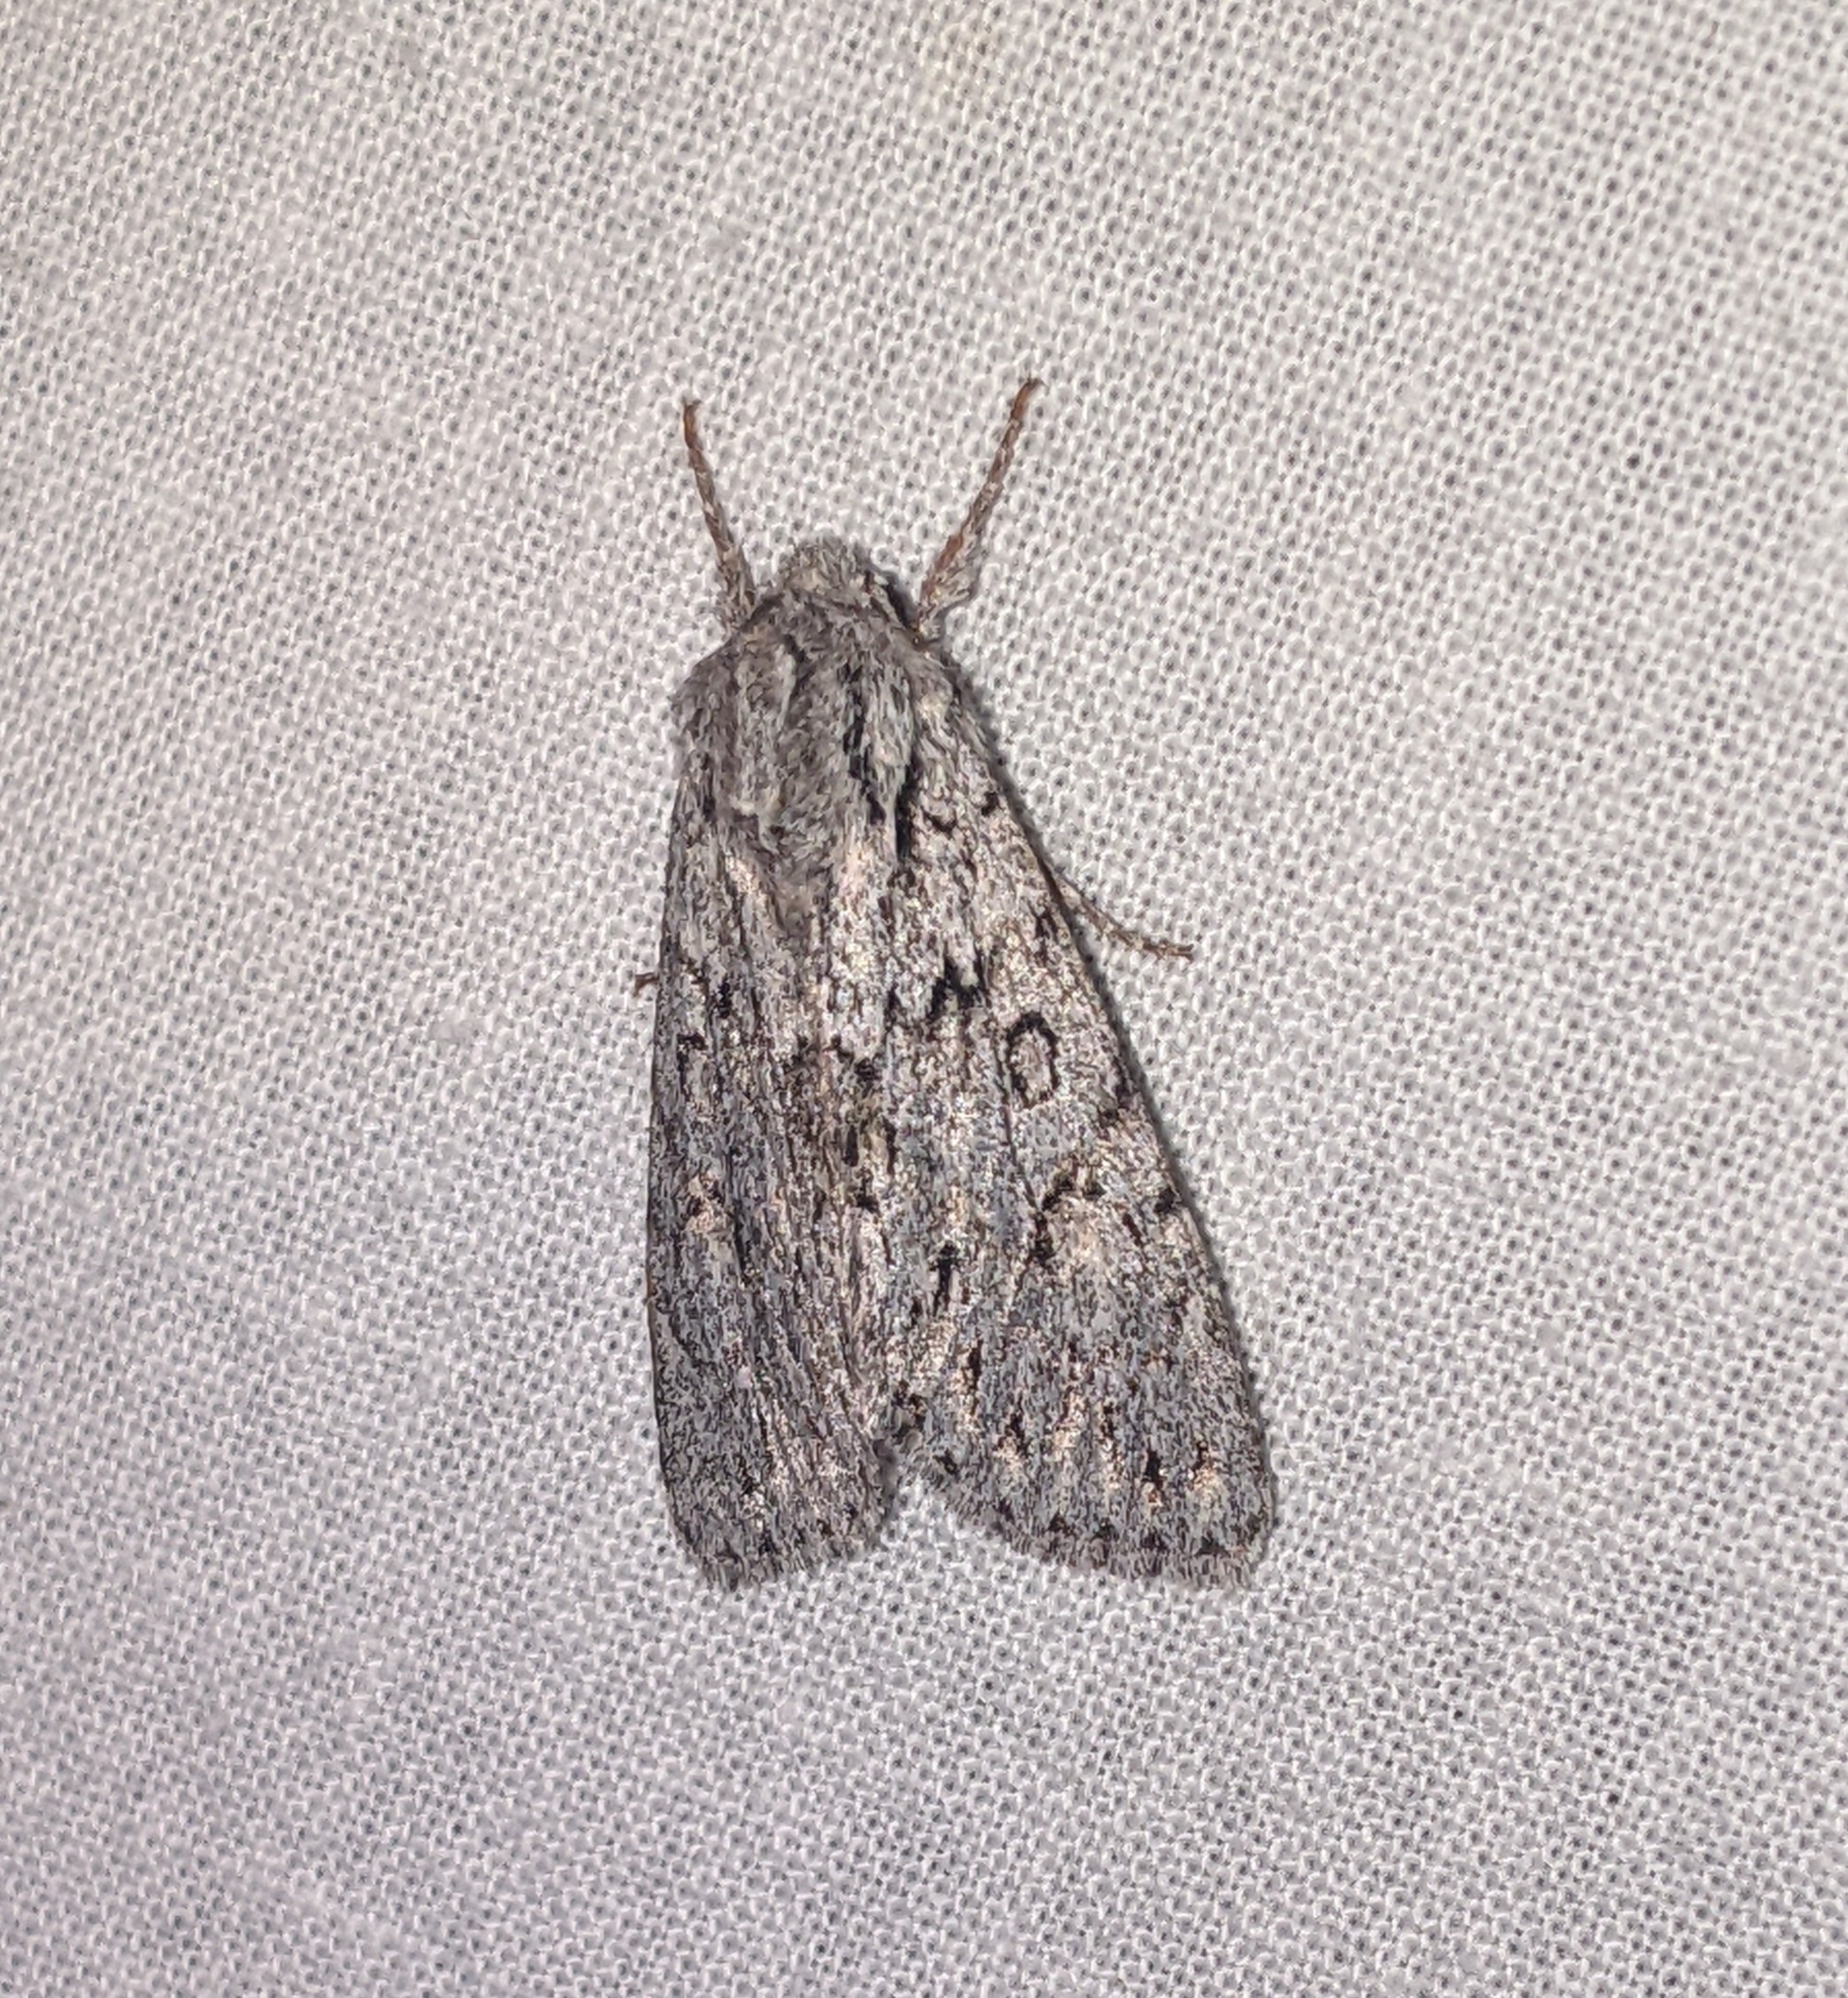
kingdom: Animalia
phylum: Arthropoda
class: Insecta
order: Lepidoptera
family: Noctuidae
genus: Andropolia
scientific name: Andropolia aedon
